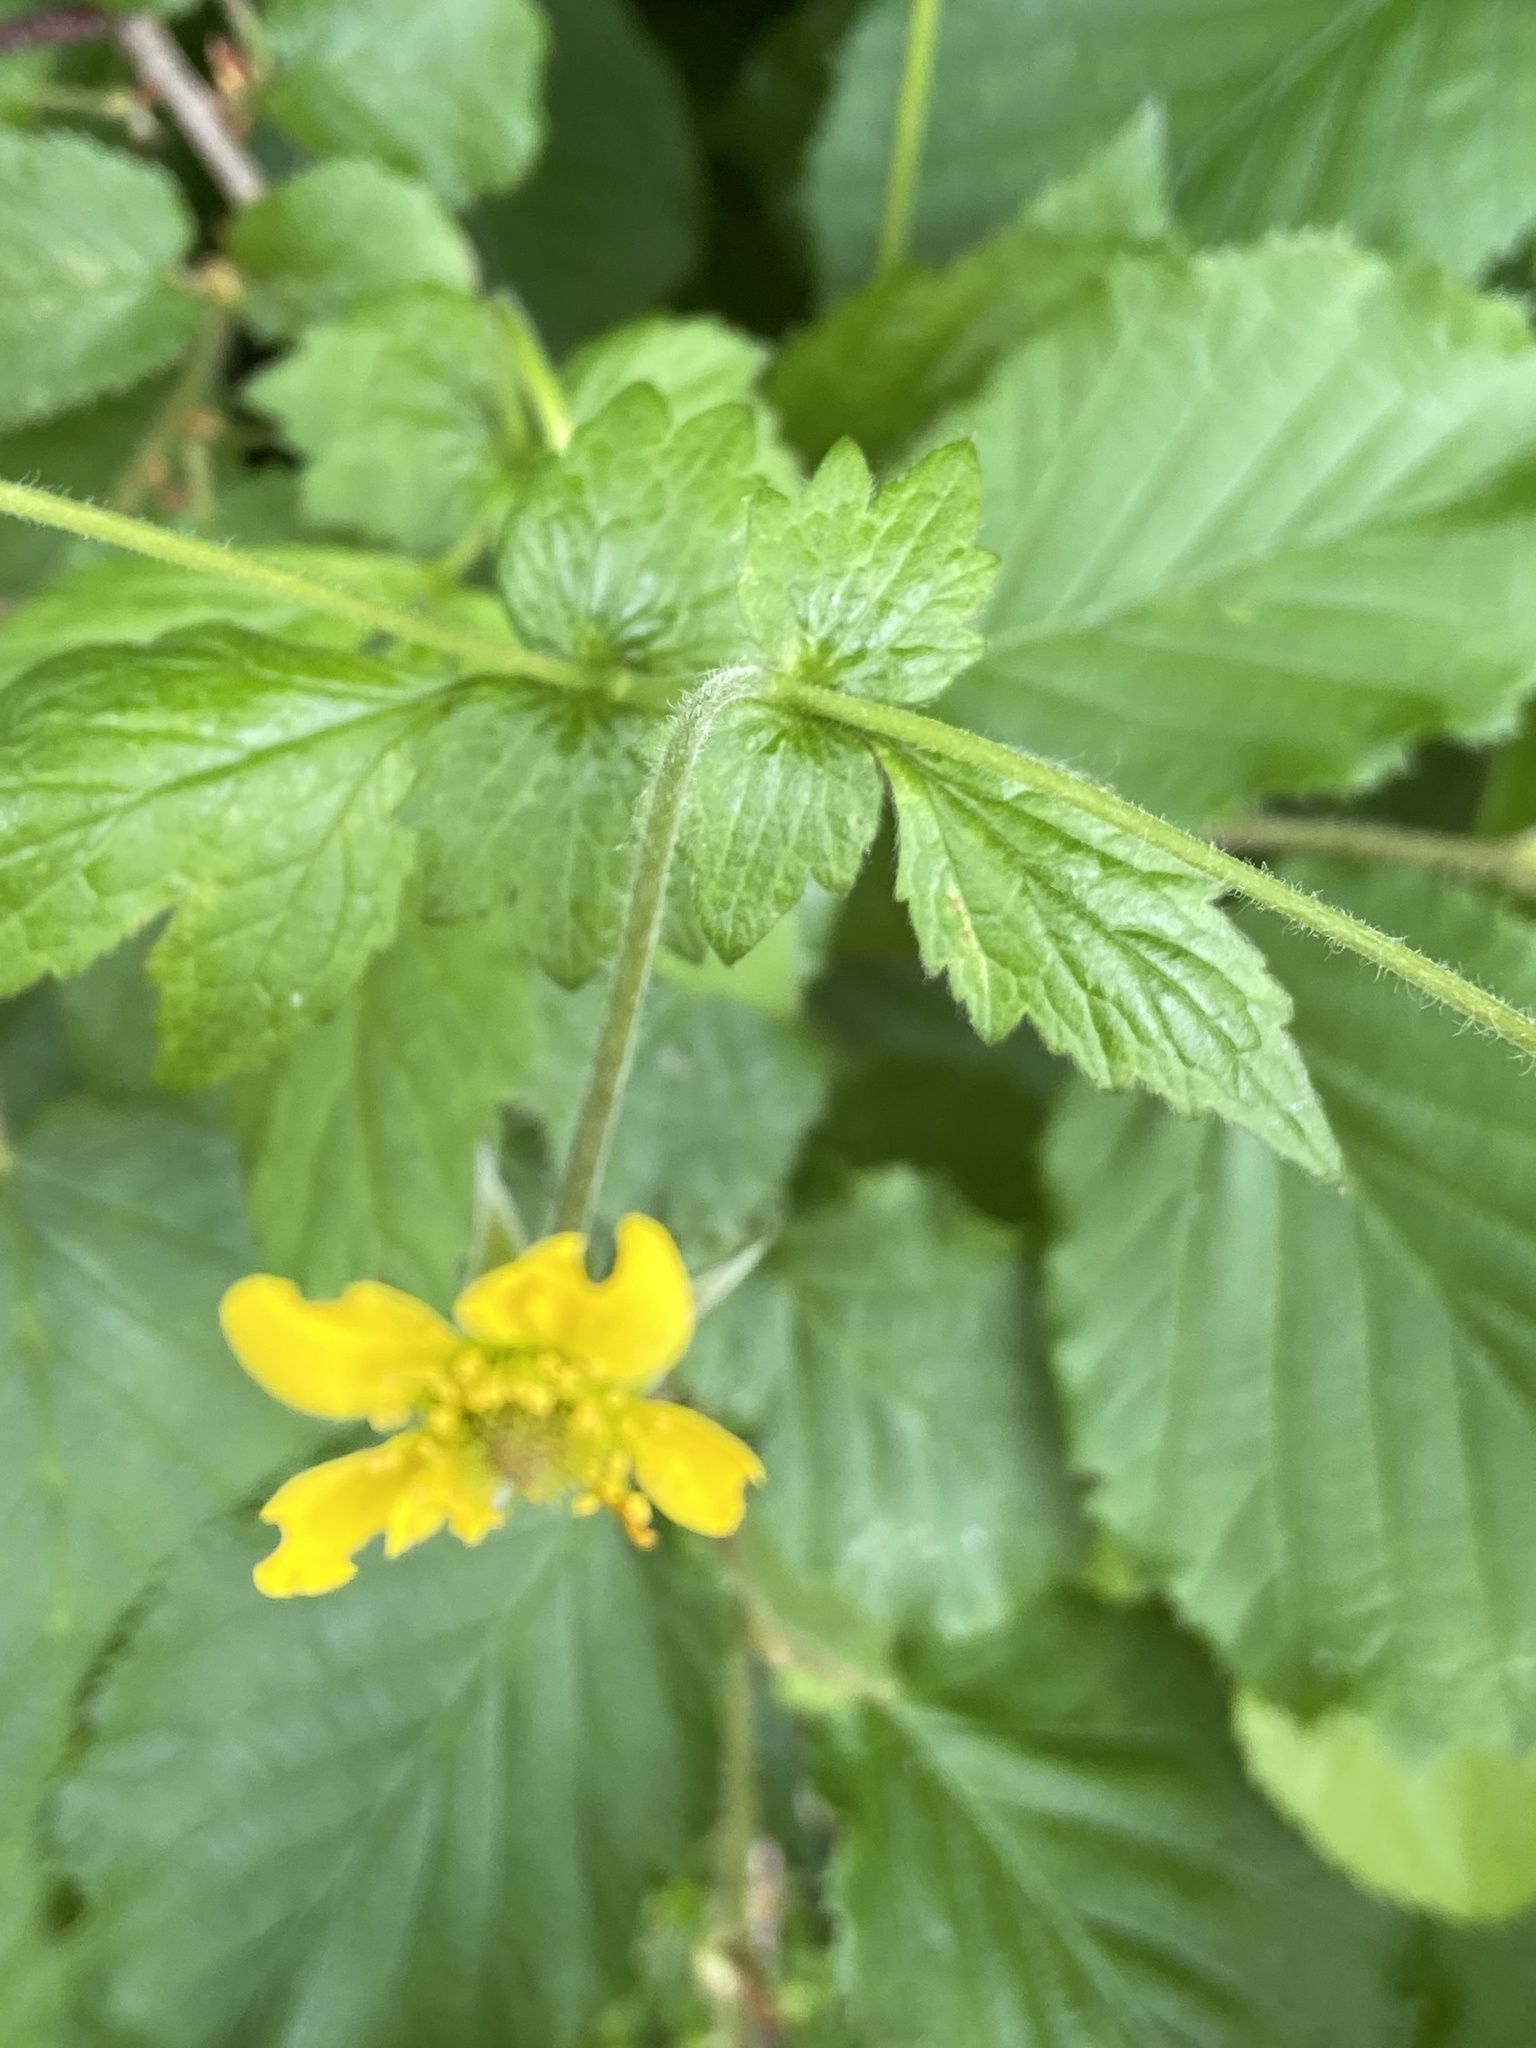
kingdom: Plantae
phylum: Tracheophyta
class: Magnoliopsida
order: Rosales
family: Rosaceae
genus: Geum
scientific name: Geum urbanum
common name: Wood avens
